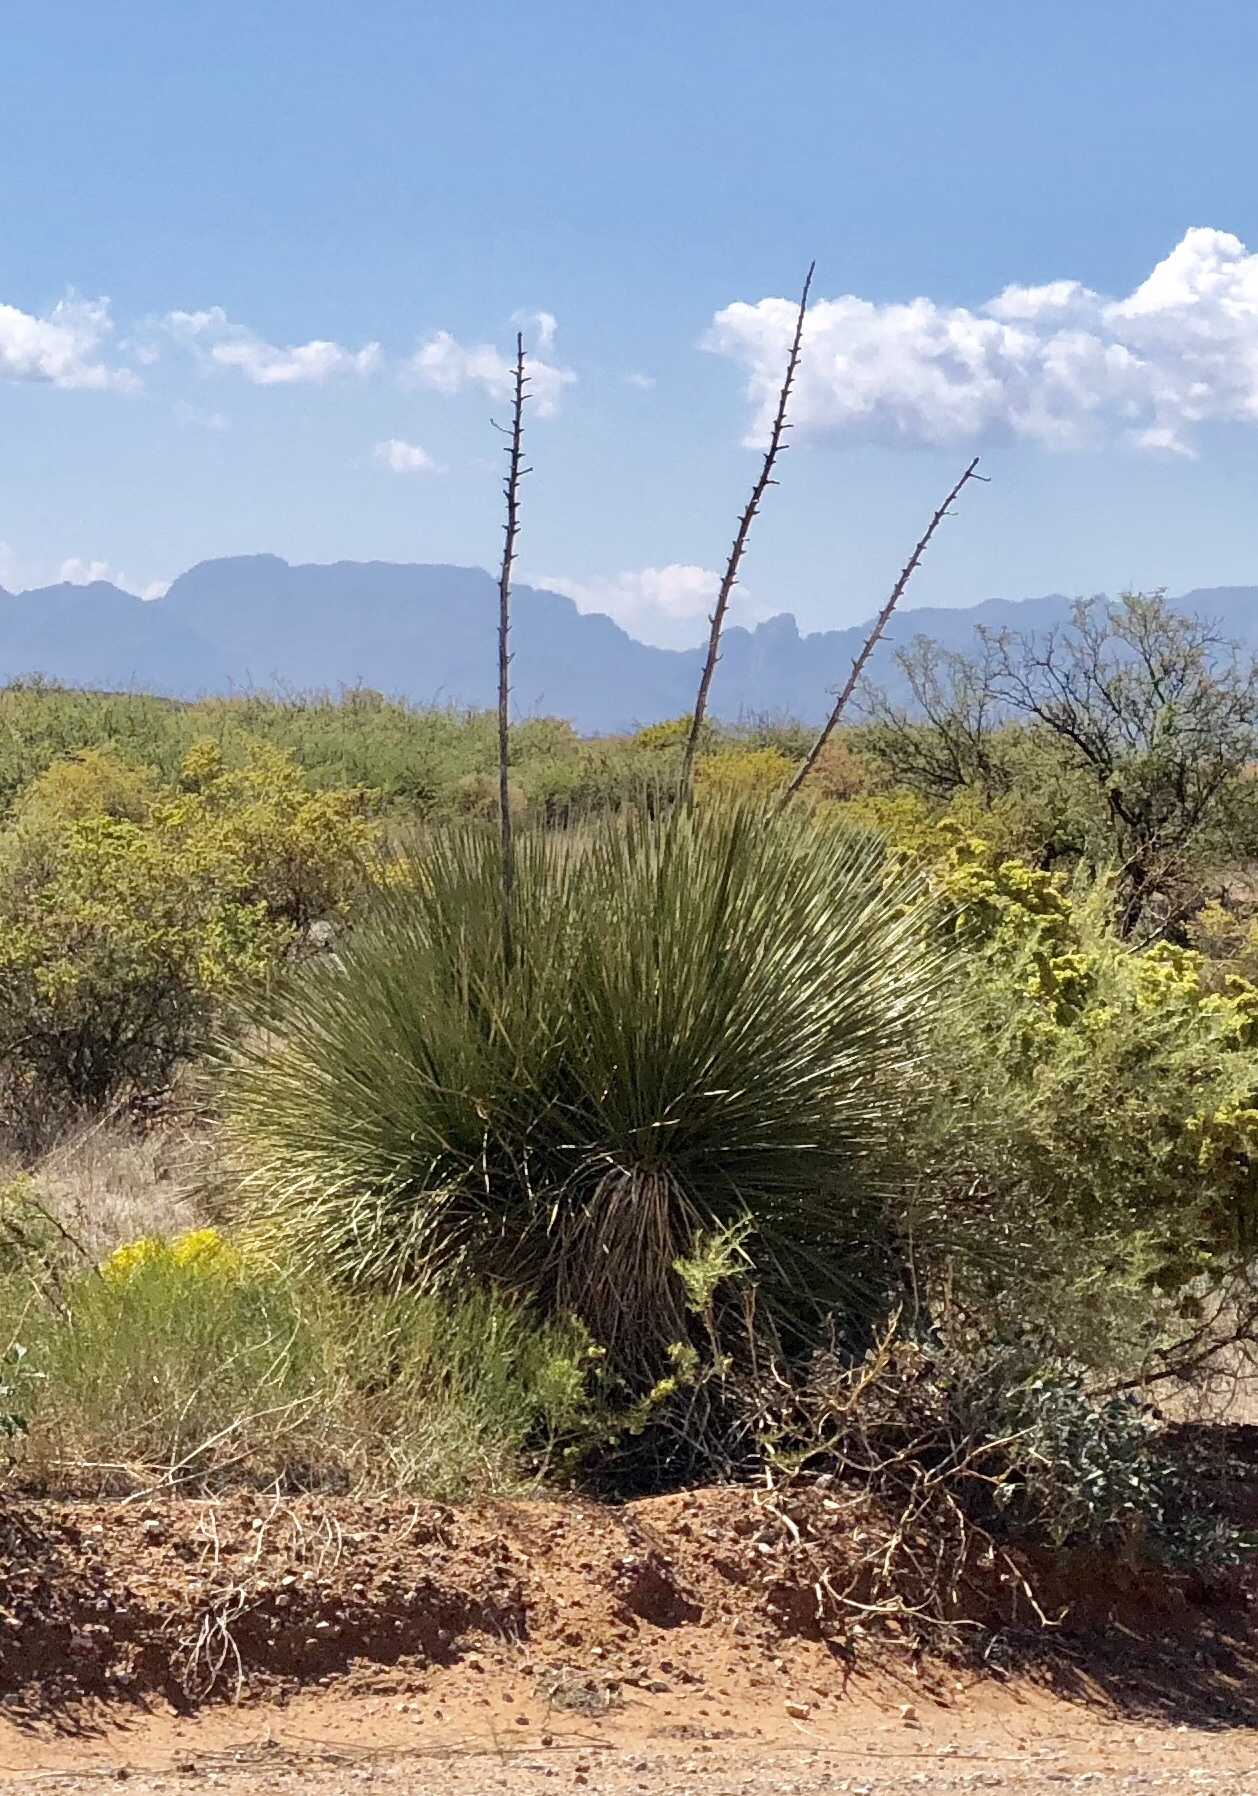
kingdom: Plantae
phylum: Tracheophyta
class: Liliopsida
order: Asparagales
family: Asparagaceae
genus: Yucca
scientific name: Yucca elata
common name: Palmella
